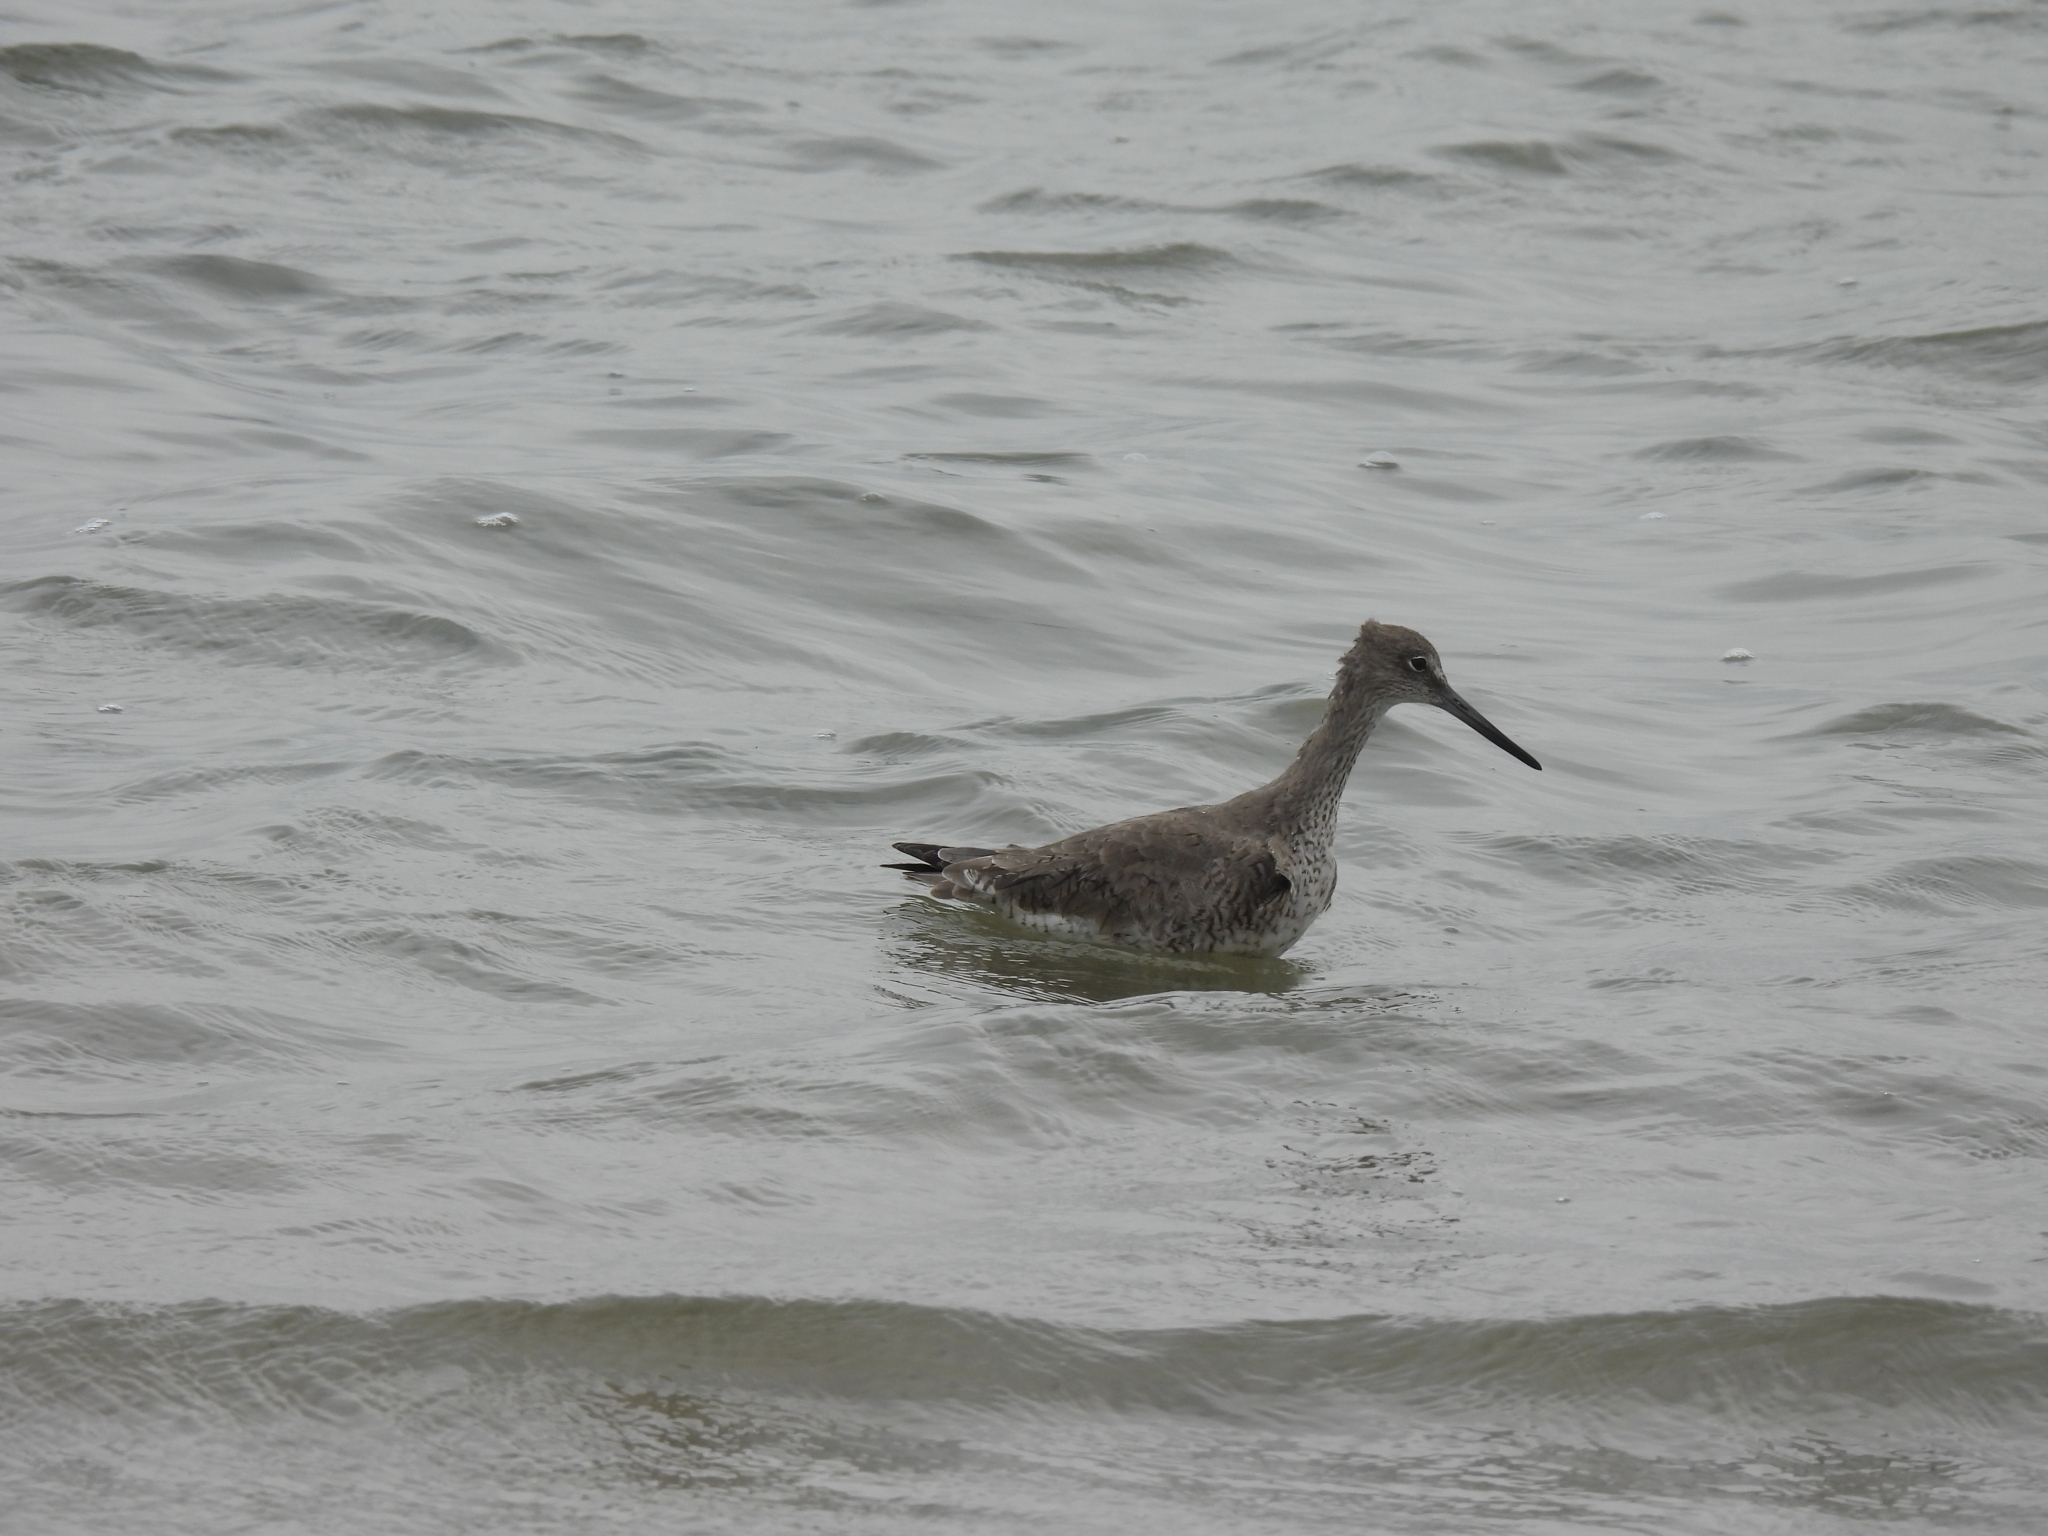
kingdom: Animalia
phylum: Chordata
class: Aves
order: Charadriiformes
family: Scolopacidae
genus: Tringa
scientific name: Tringa semipalmata
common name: Willet
